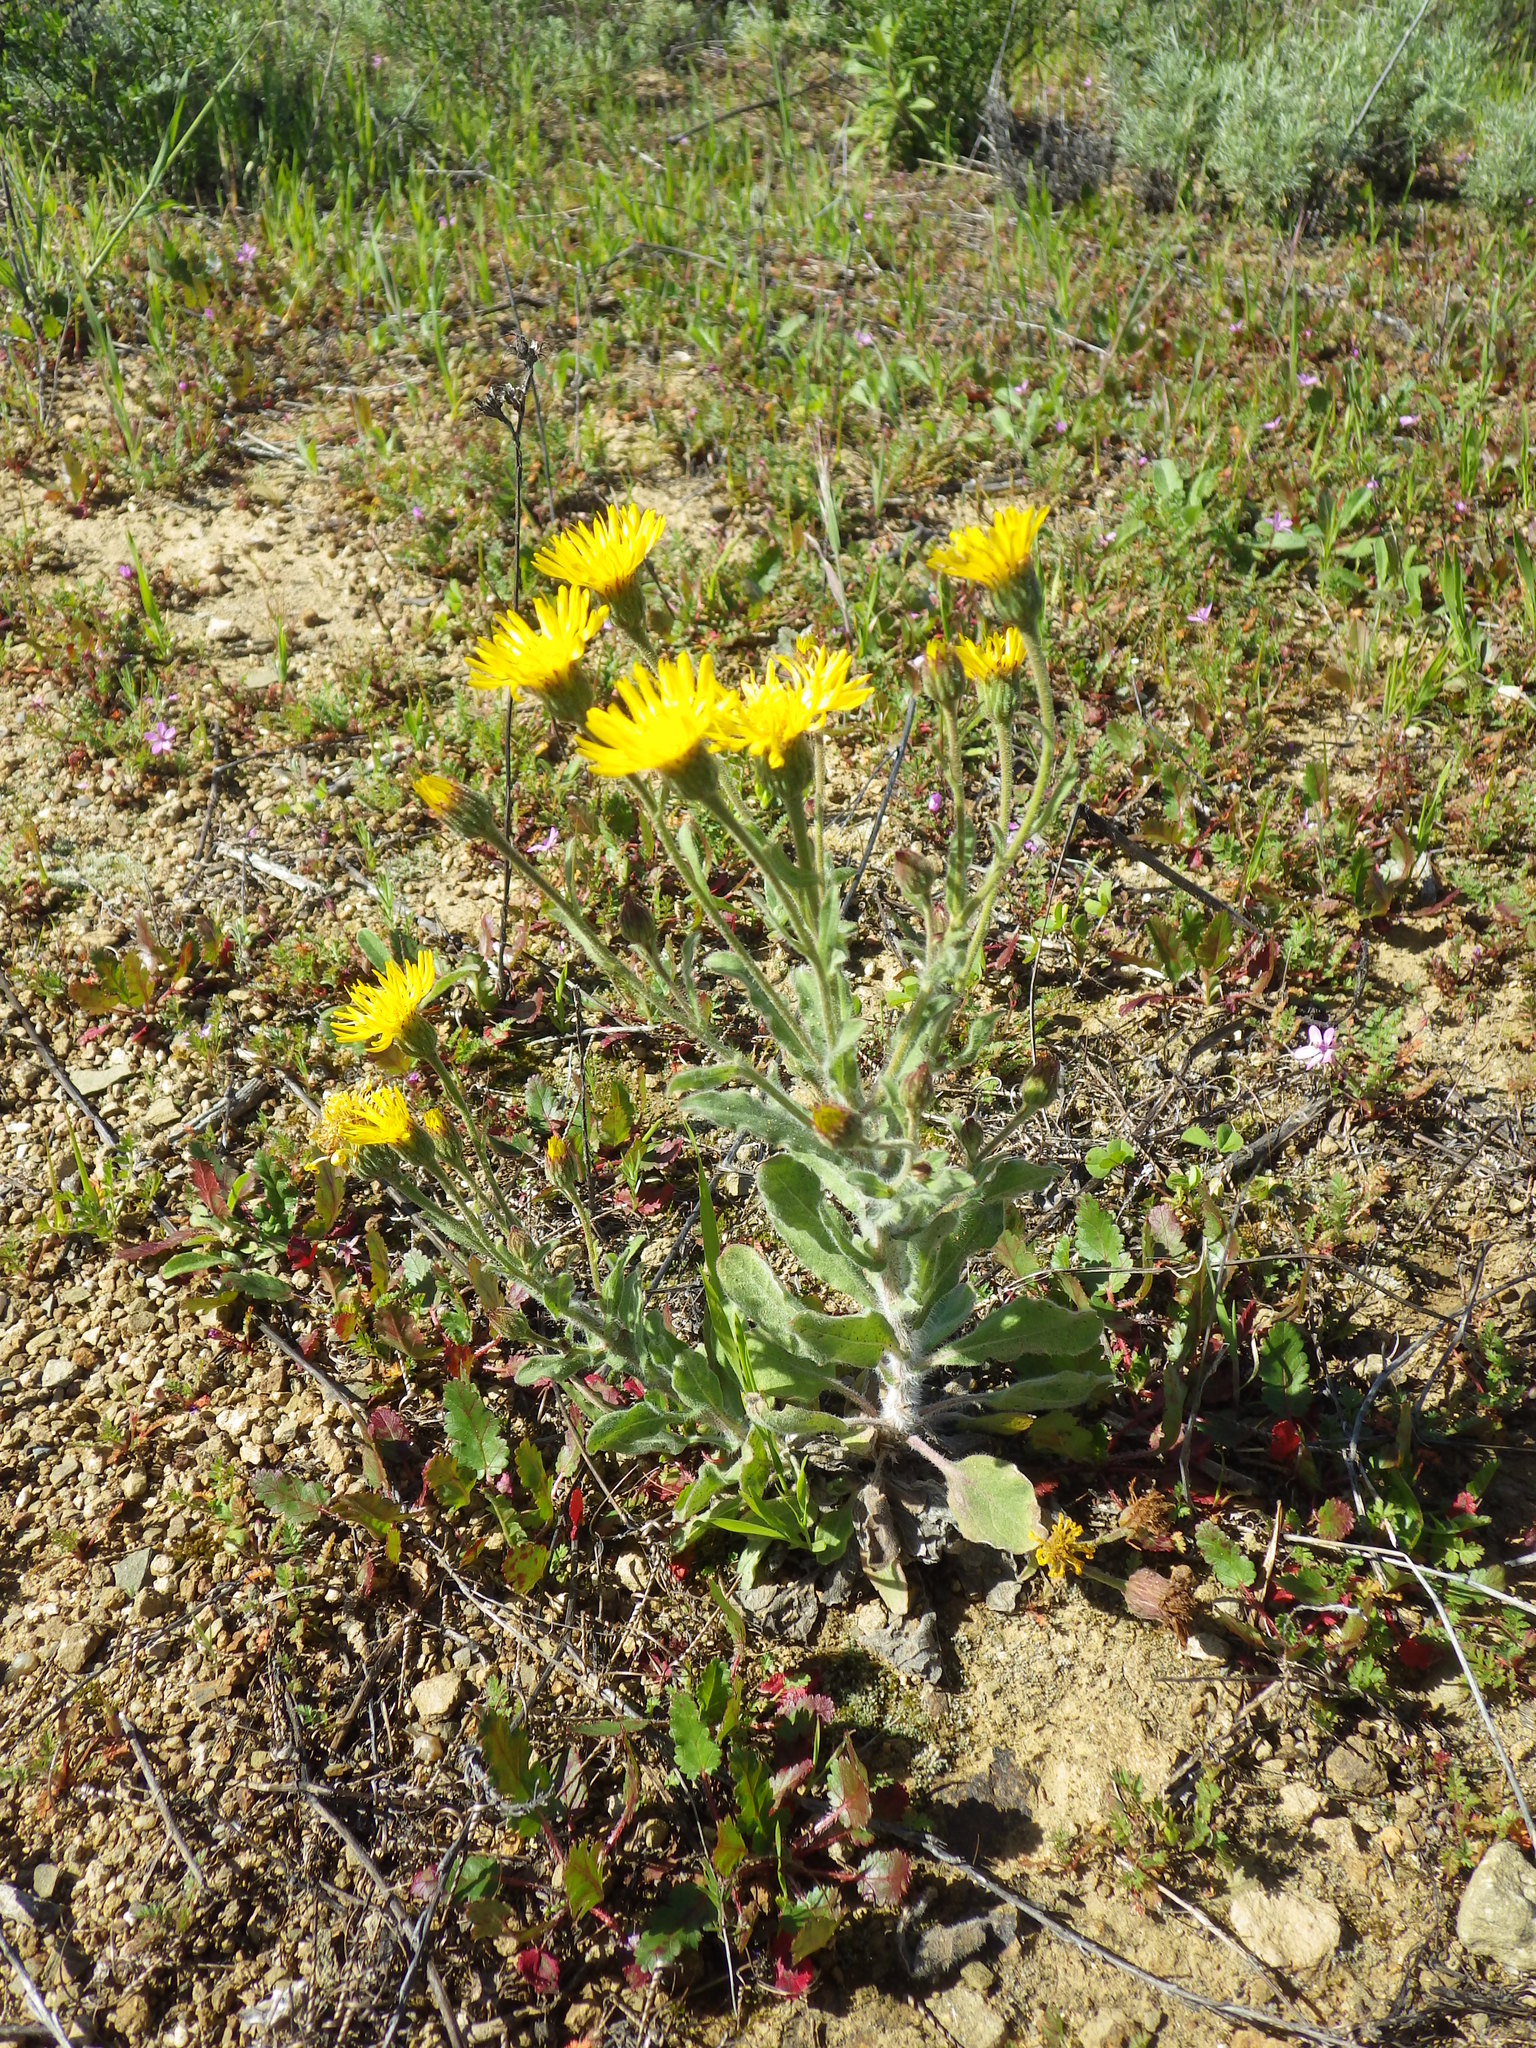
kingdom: Plantae
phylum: Tracheophyta
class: Magnoliopsida
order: Asterales
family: Asteraceae
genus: Heterotheca
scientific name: Heterotheca grandiflora
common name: Telegraphweed
